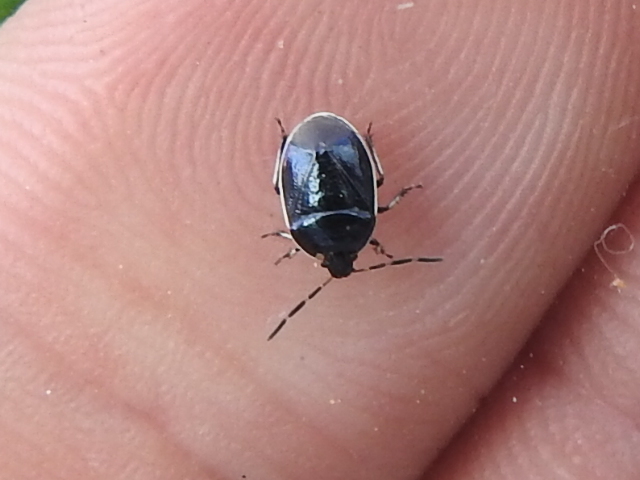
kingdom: Animalia
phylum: Arthropoda
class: Insecta
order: Hemiptera
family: Cydnidae
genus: Sehirus
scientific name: Sehirus cinctus
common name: White-margined burrower bug
